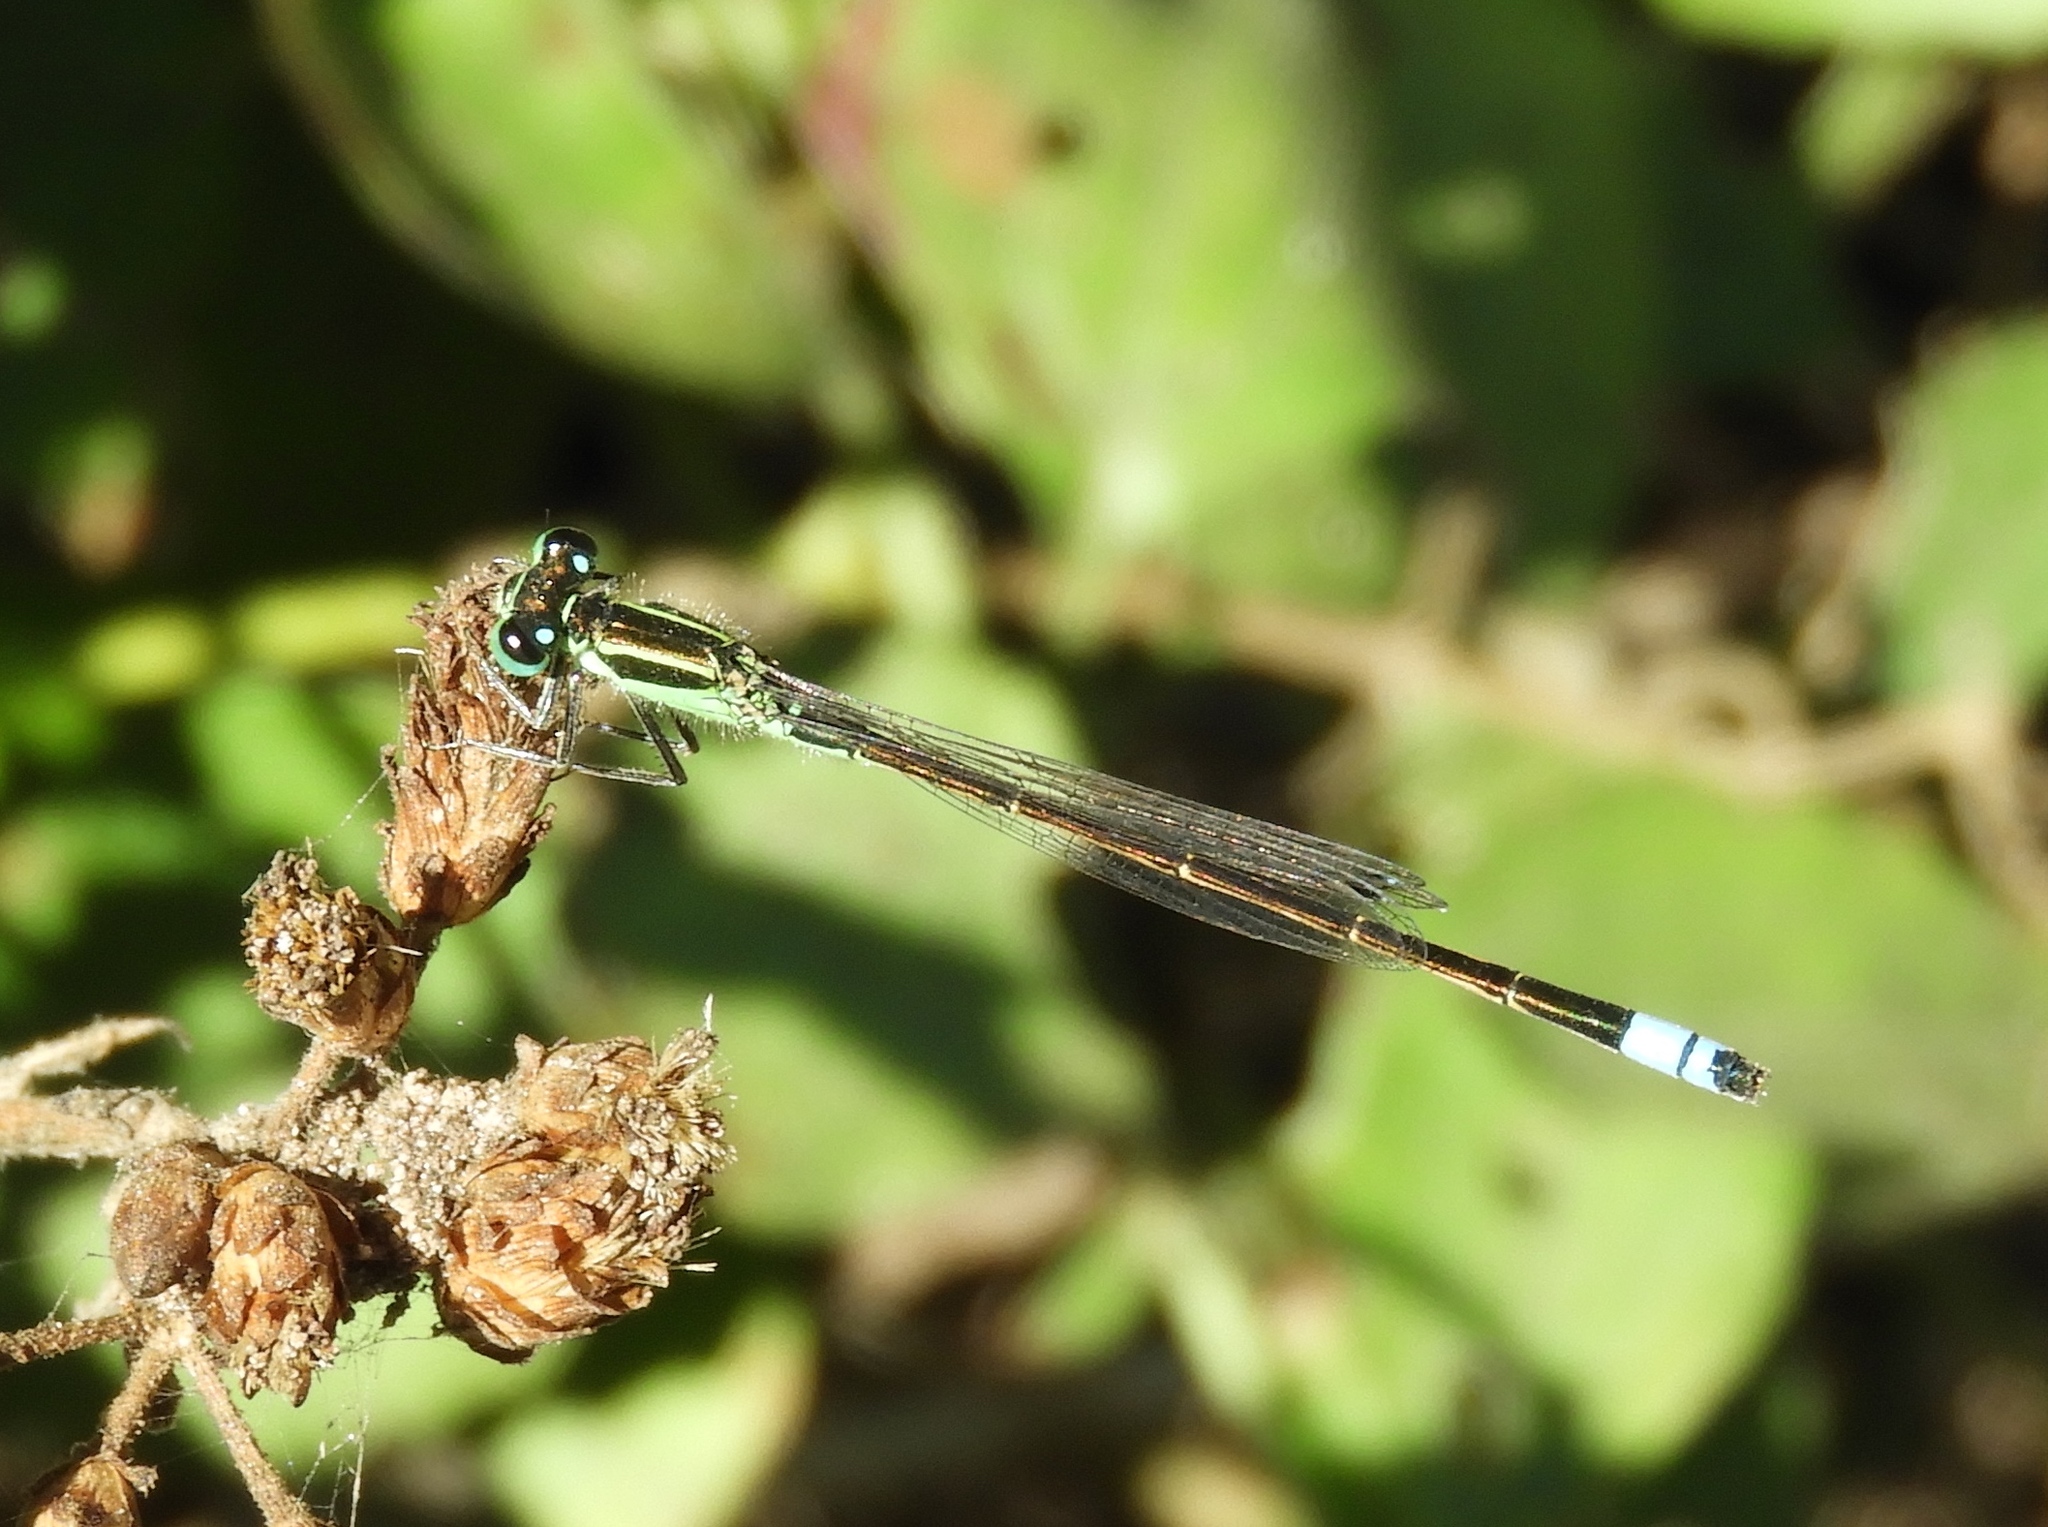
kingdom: Animalia
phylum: Arthropoda
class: Insecta
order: Odonata
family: Coenagrionidae
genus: Ischnura
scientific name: Ischnura ramburii
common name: Rambur's forktail
